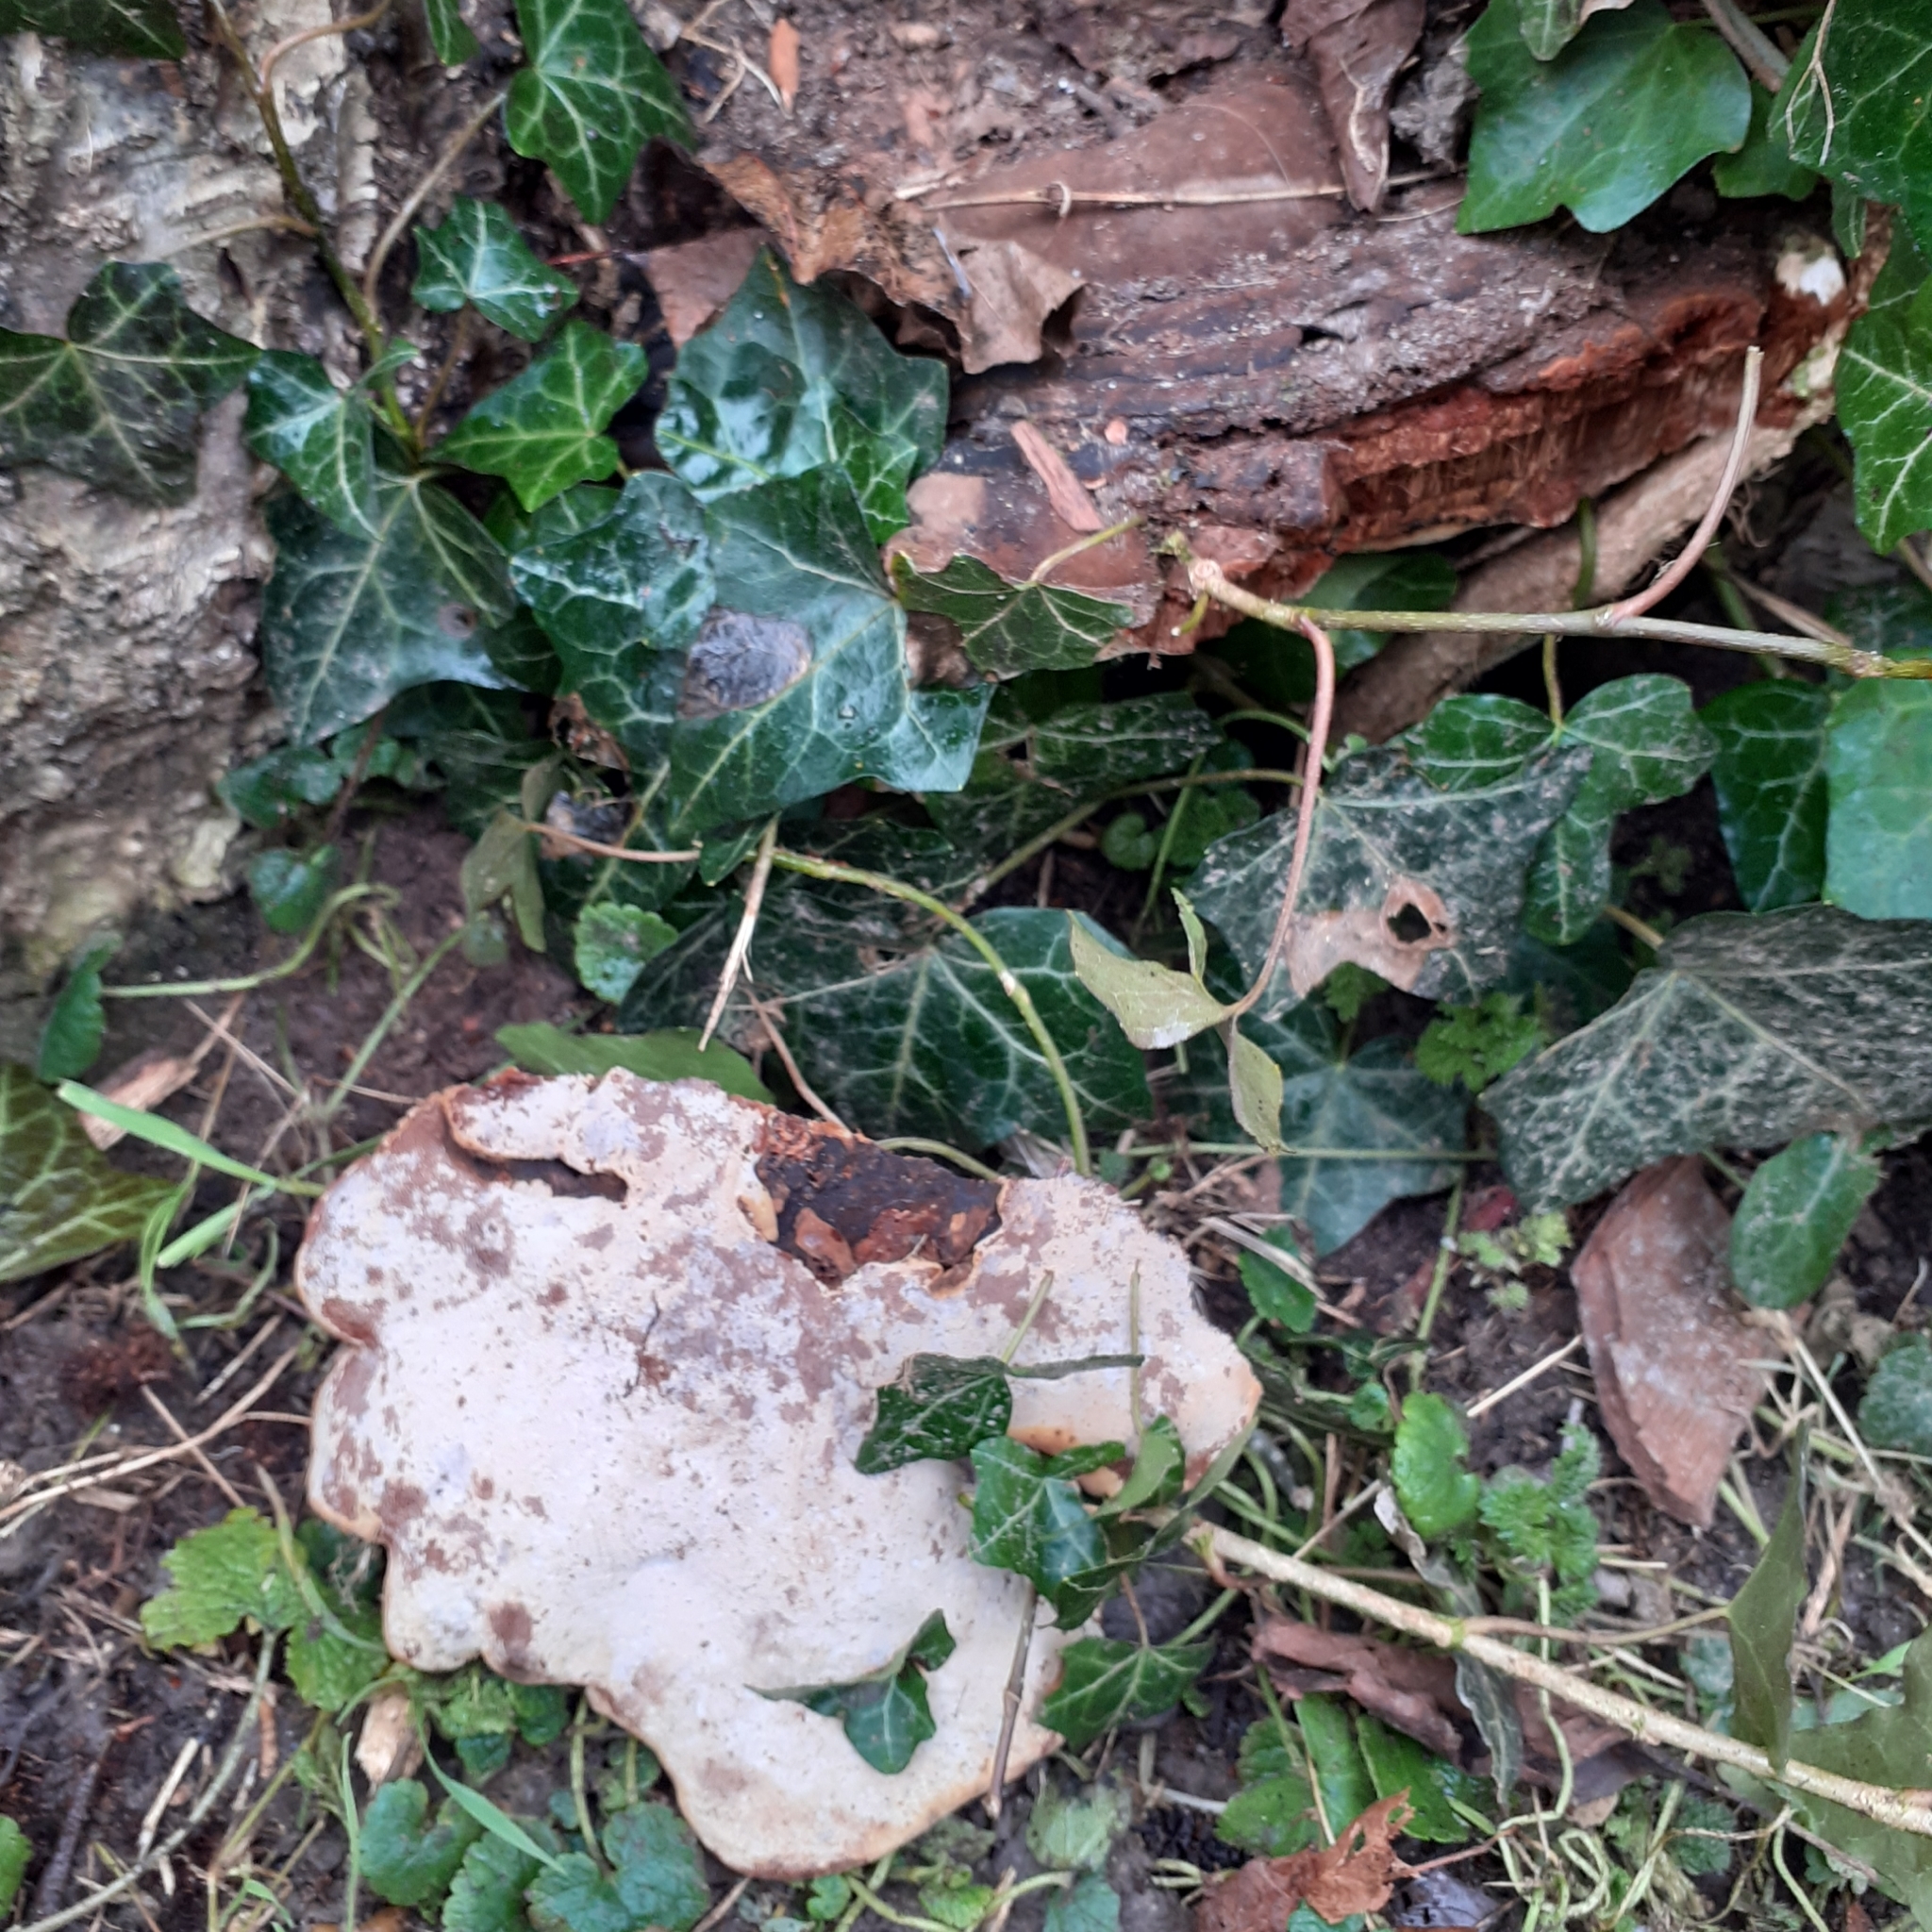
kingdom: Fungi
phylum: Basidiomycota
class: Agaricomycetes
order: Polyporales
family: Polyporaceae
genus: Ganoderma
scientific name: Ganoderma applanatum
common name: Artist's bracket
